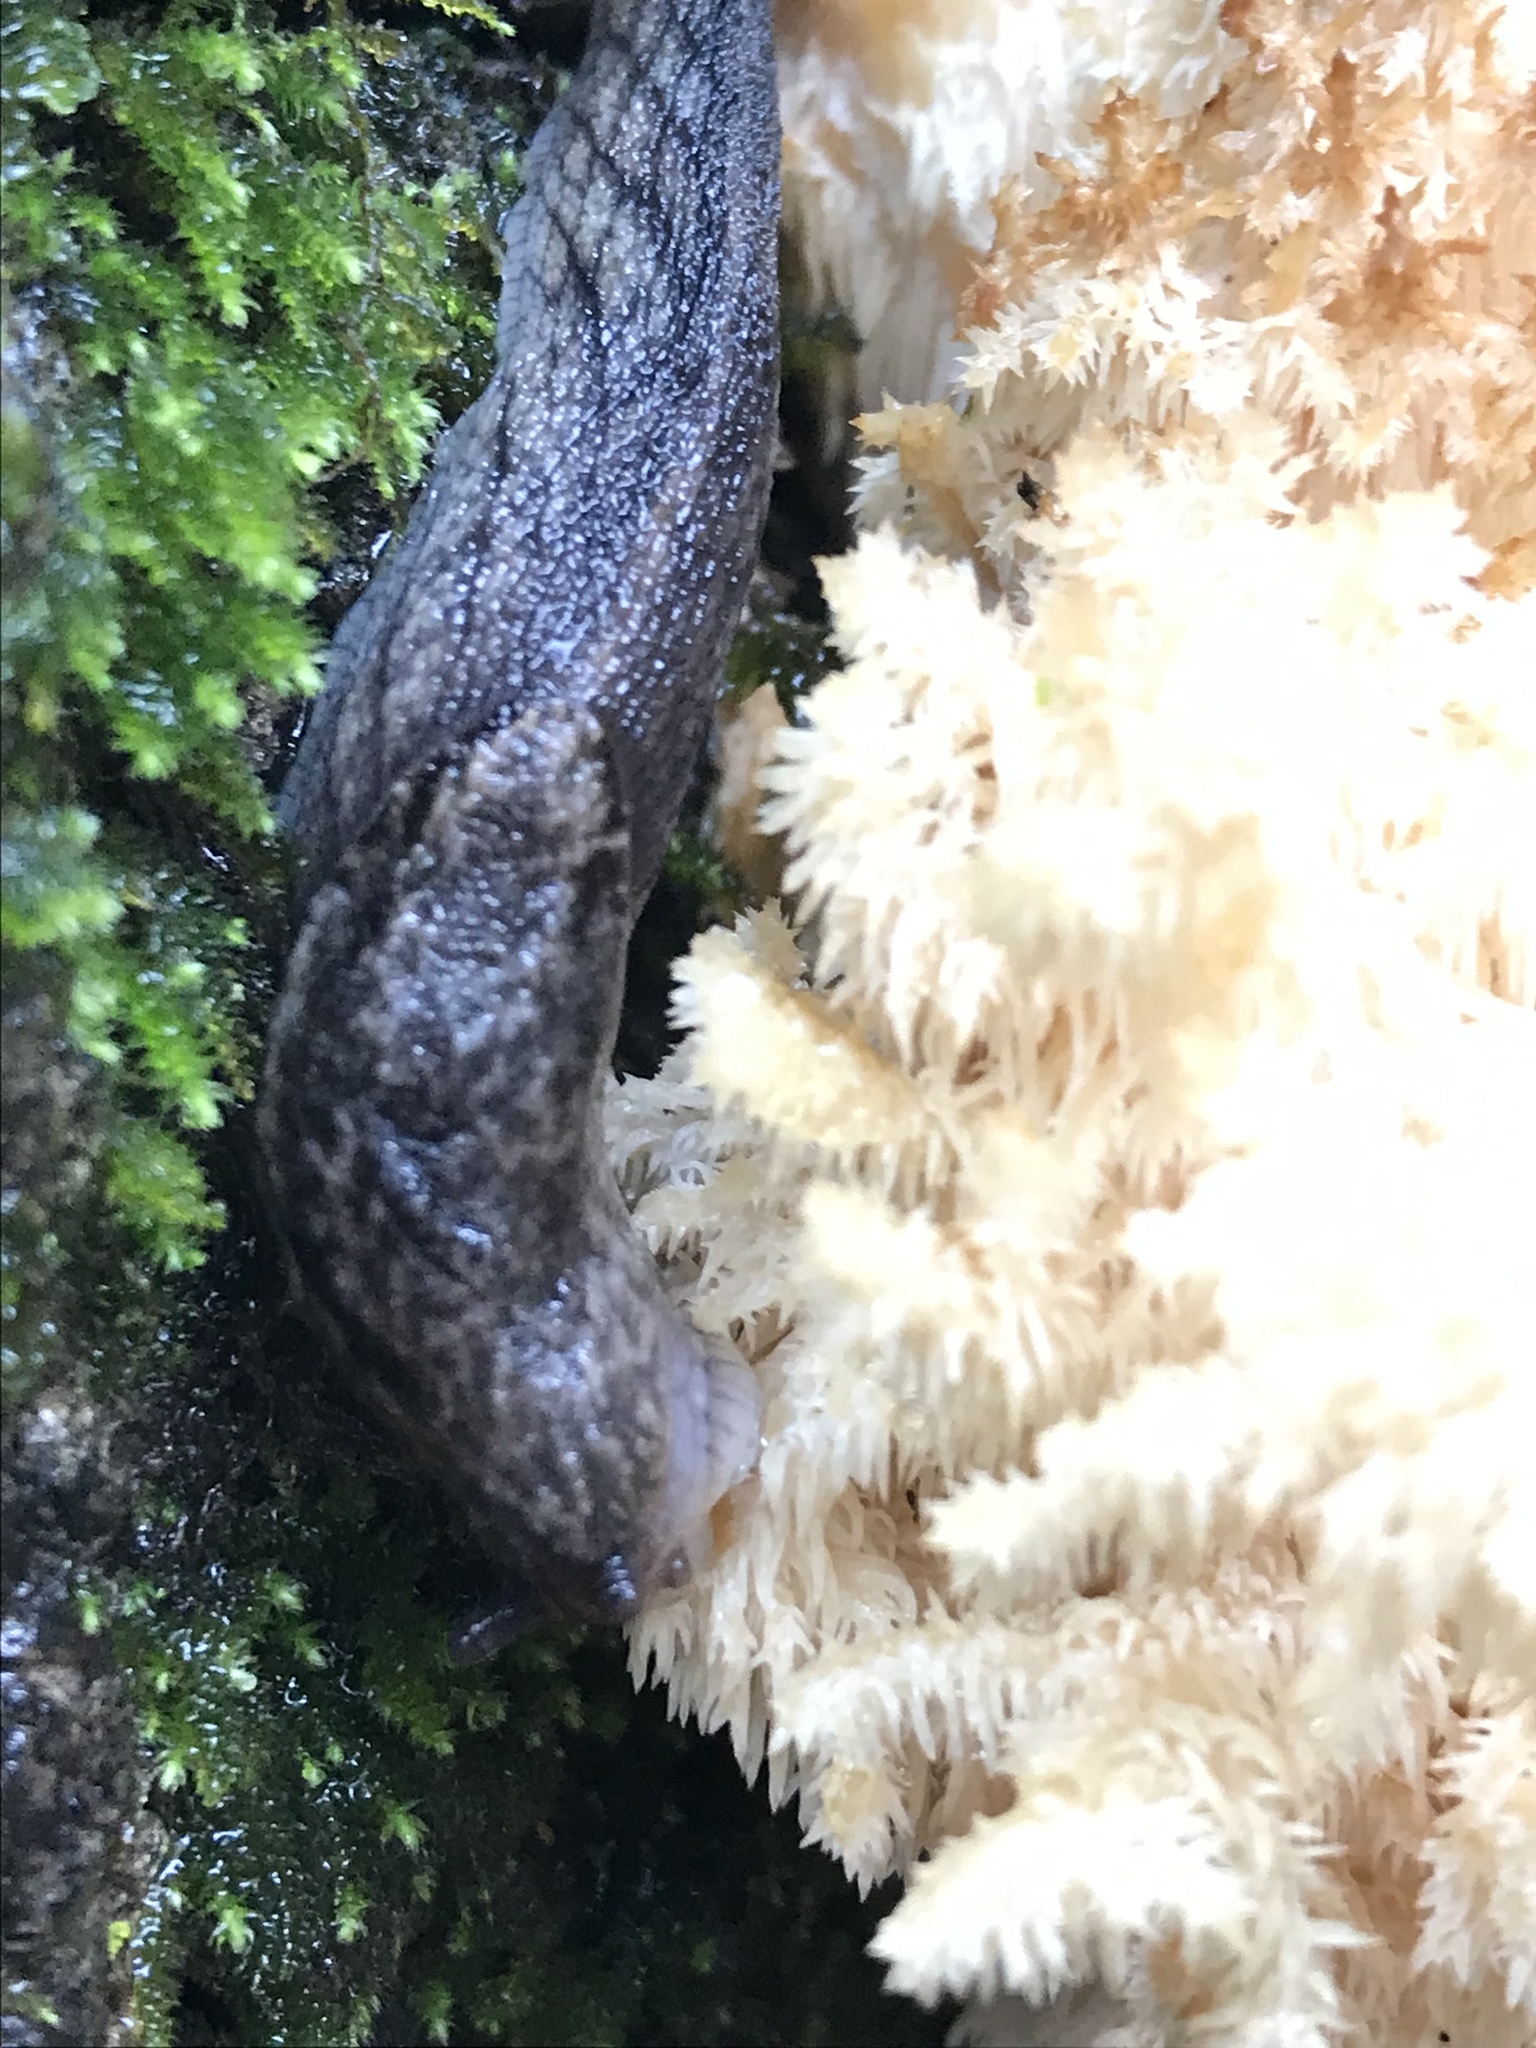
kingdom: Animalia
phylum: Mollusca
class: Gastropoda
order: Stylommatophora
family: Ariolimacidae
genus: Prophysaon
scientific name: Prophysaon andersonii
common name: Reticulate taildropper
